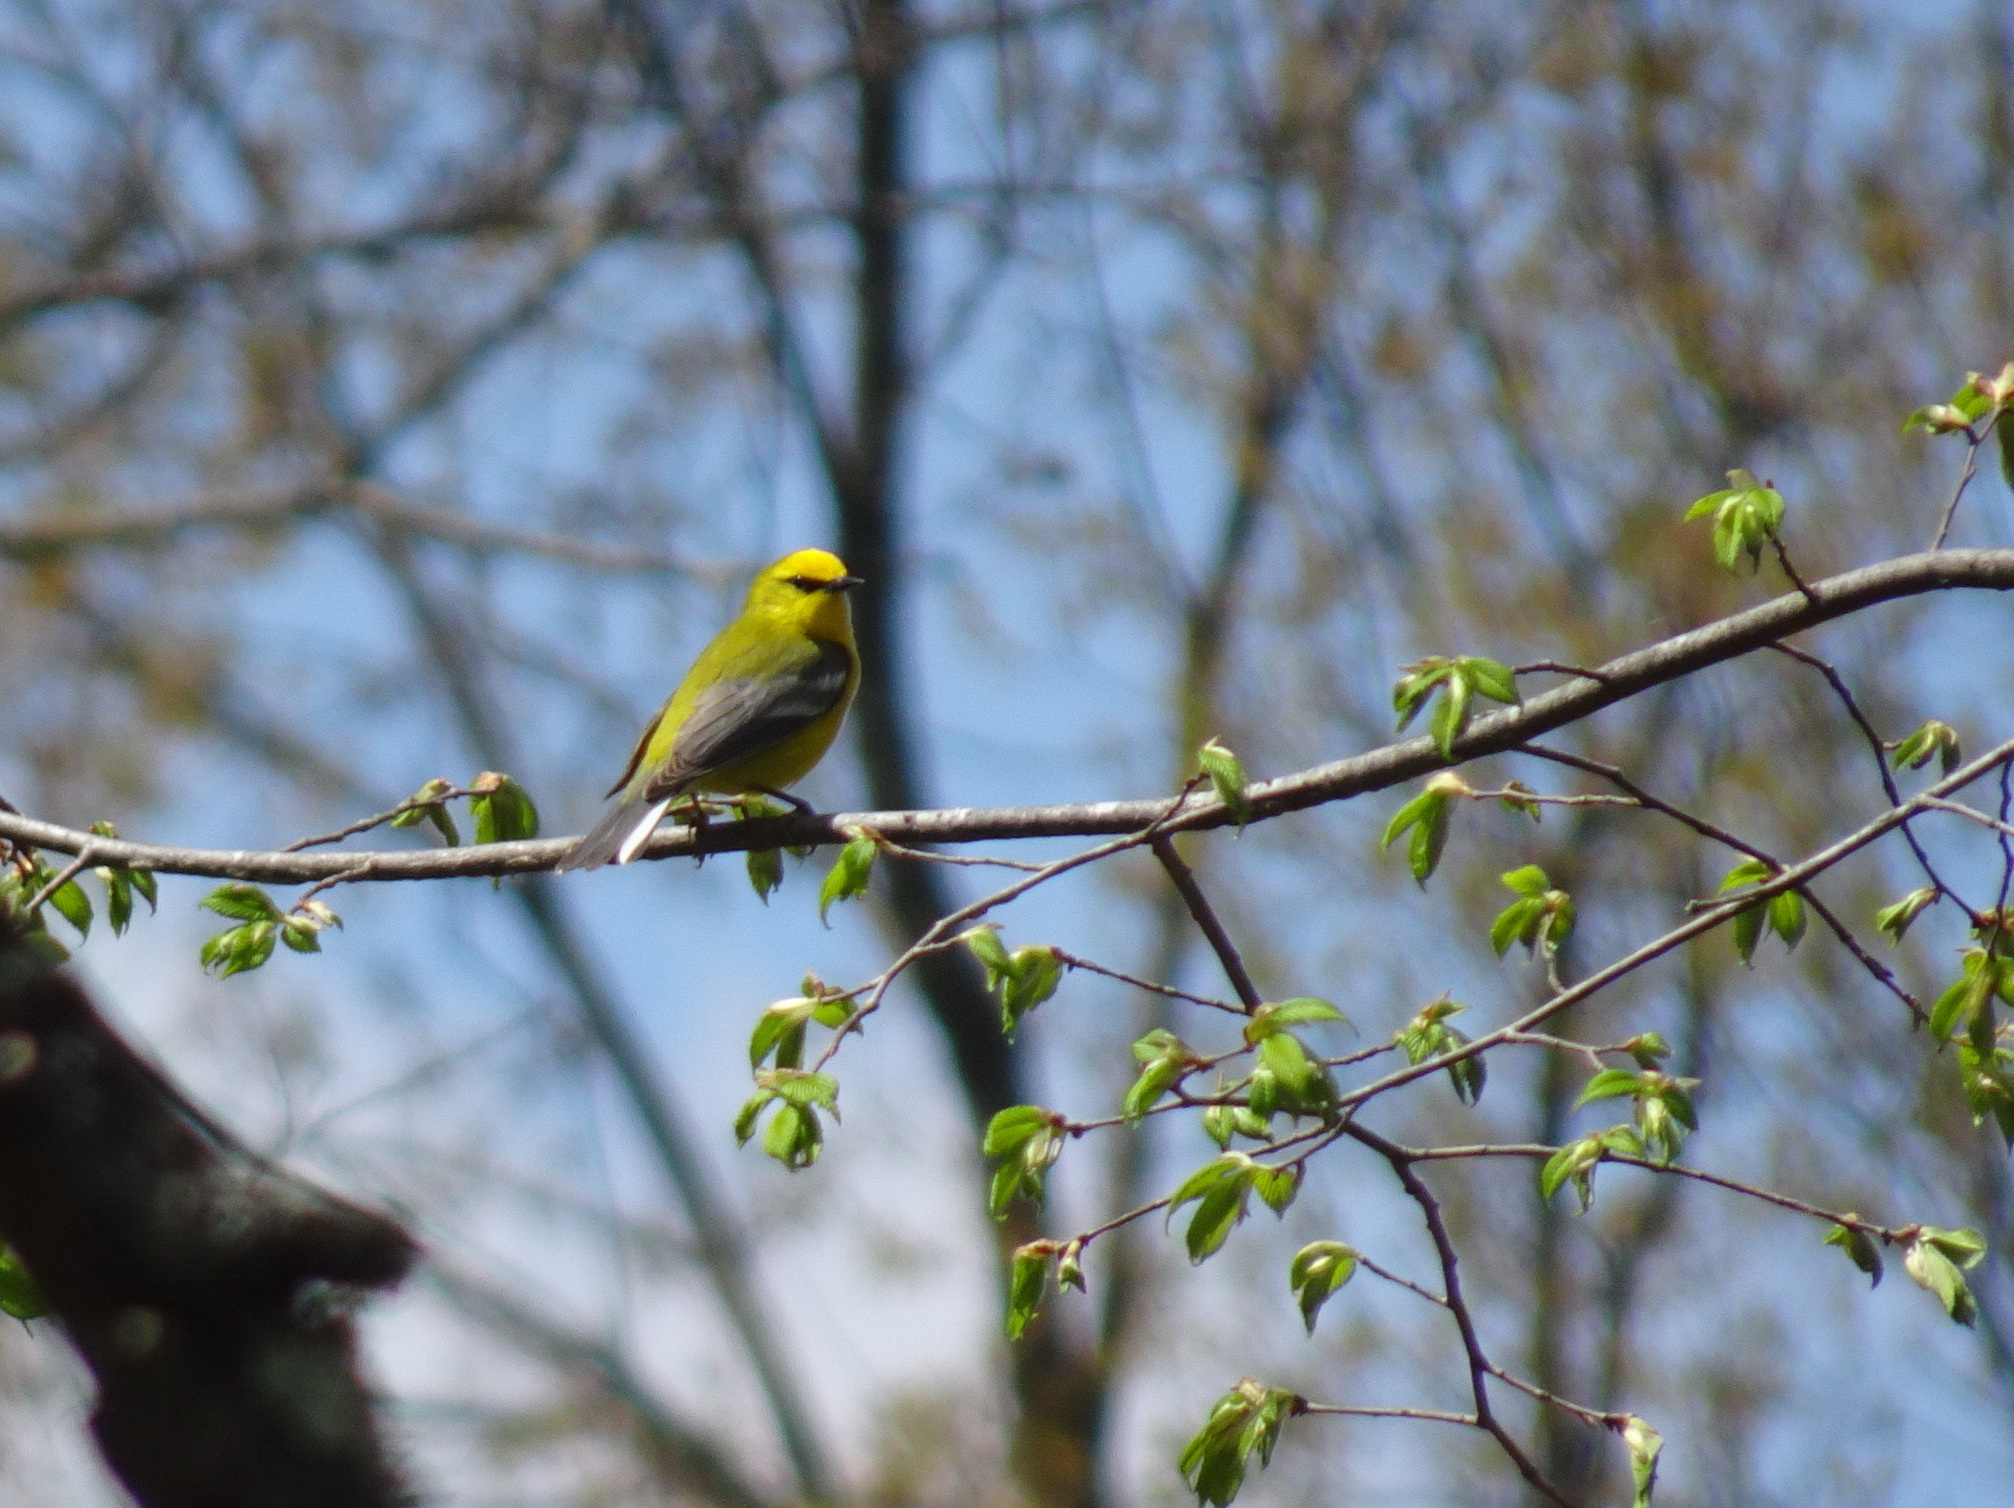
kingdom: Animalia
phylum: Chordata
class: Aves
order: Passeriformes
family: Parulidae
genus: Vermivora
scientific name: Vermivora cyanoptera
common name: Blue-winged warbler
